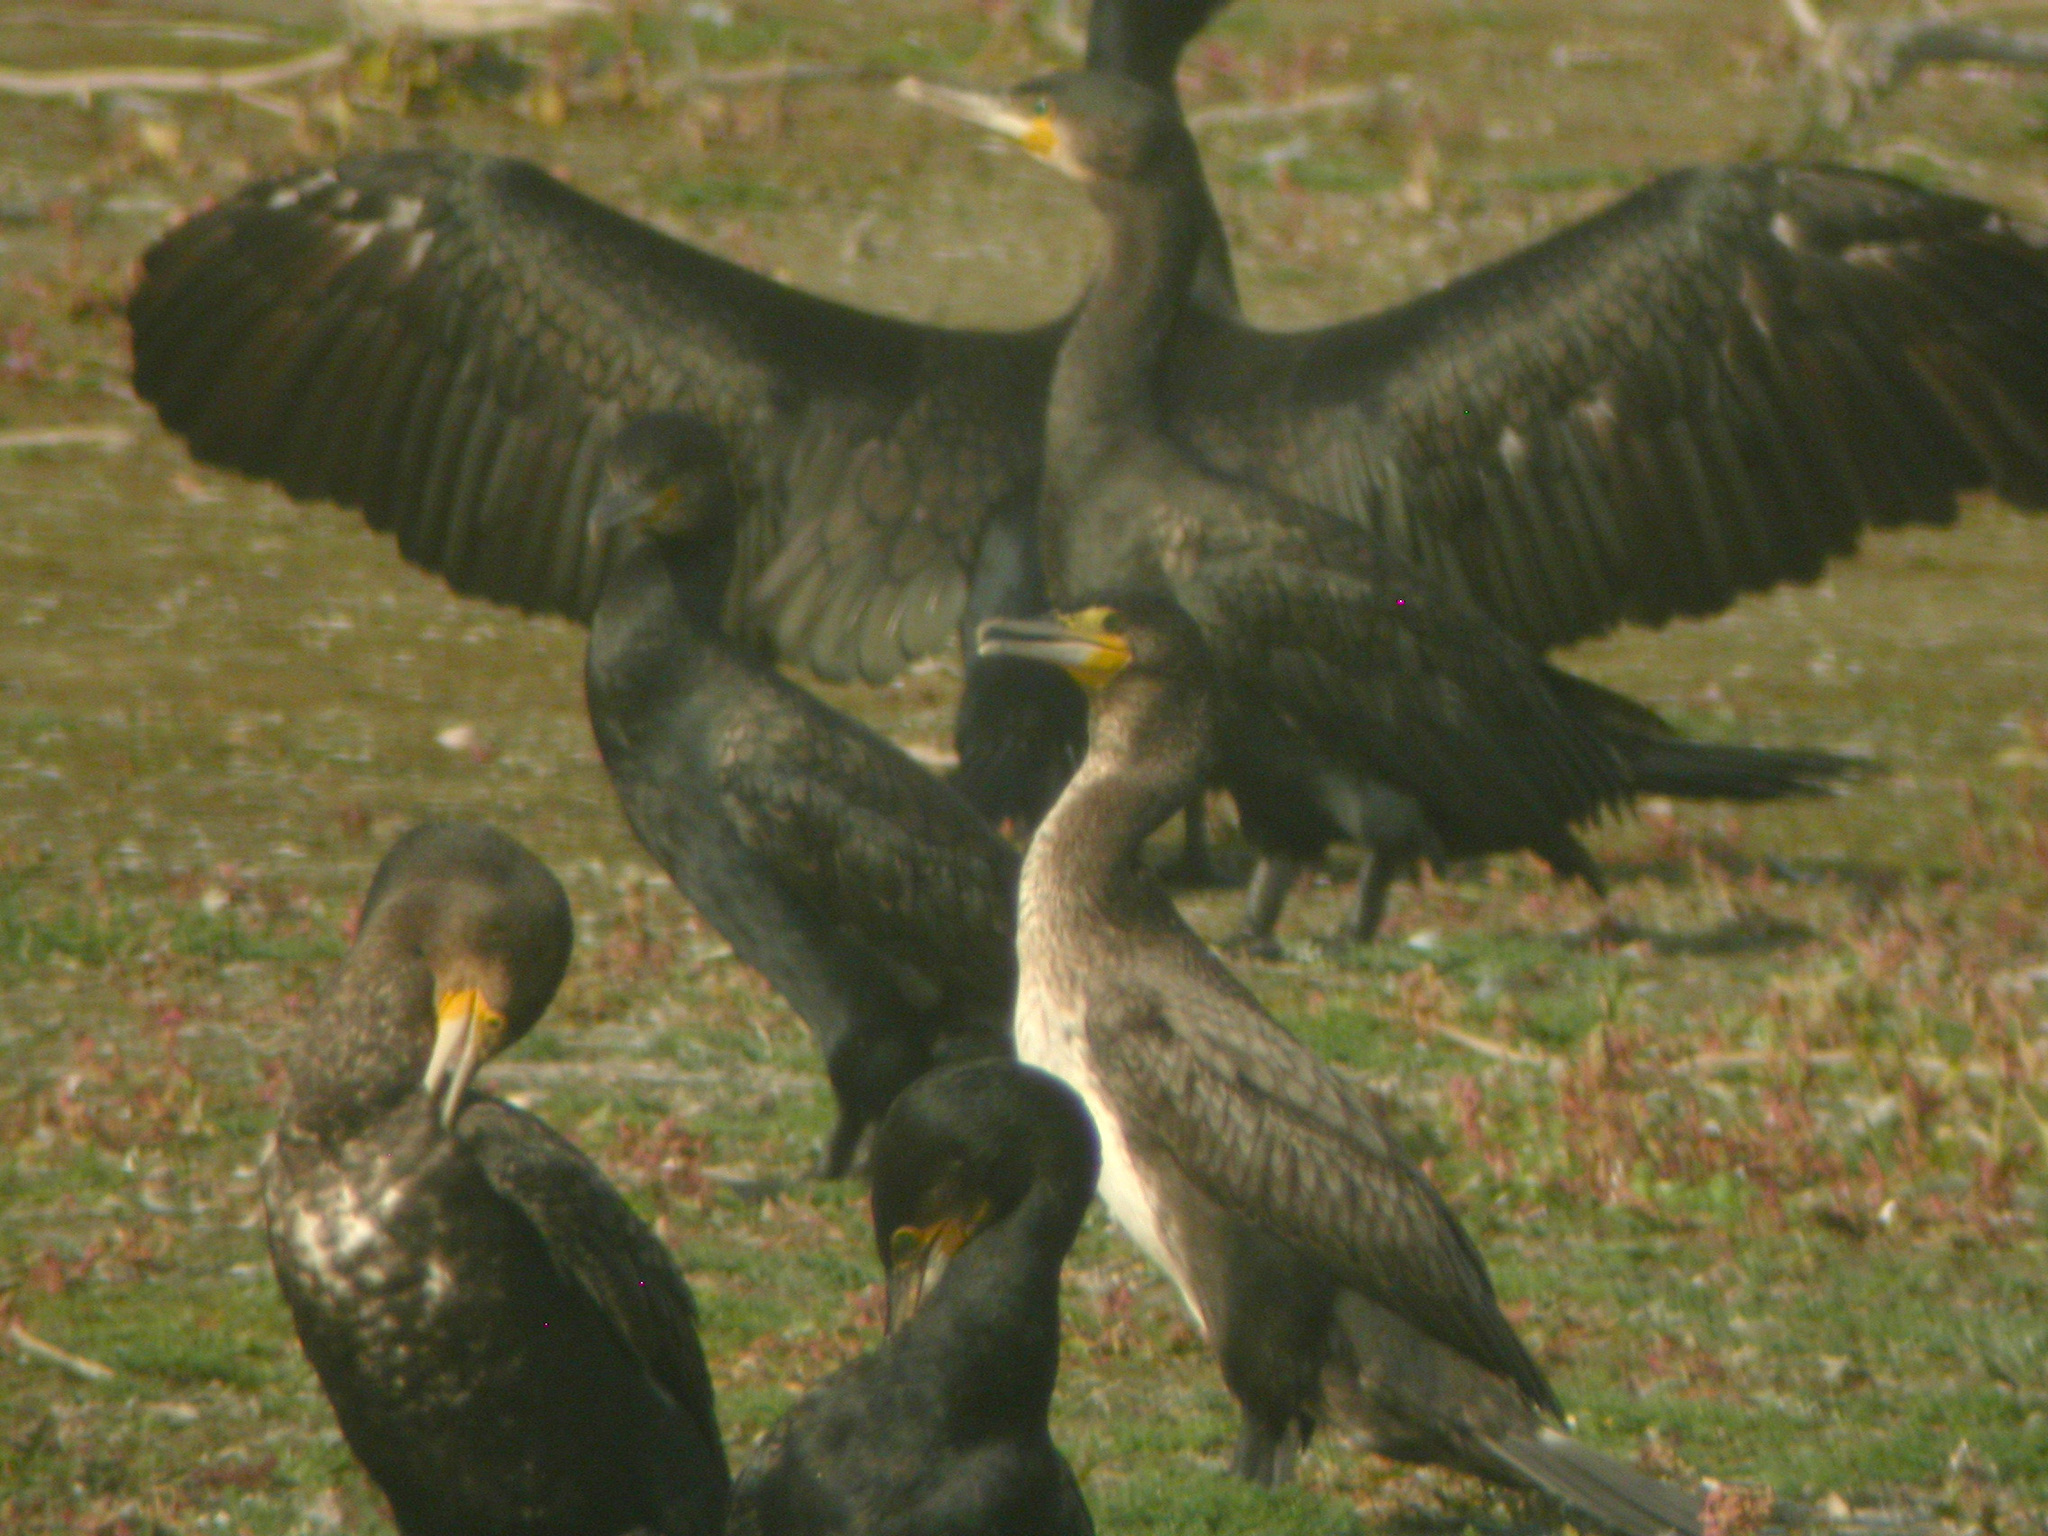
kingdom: Animalia
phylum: Chordata
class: Aves
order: Suliformes
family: Phalacrocoracidae
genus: Phalacrocorax
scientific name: Phalacrocorax carbo
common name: Great cormorant
